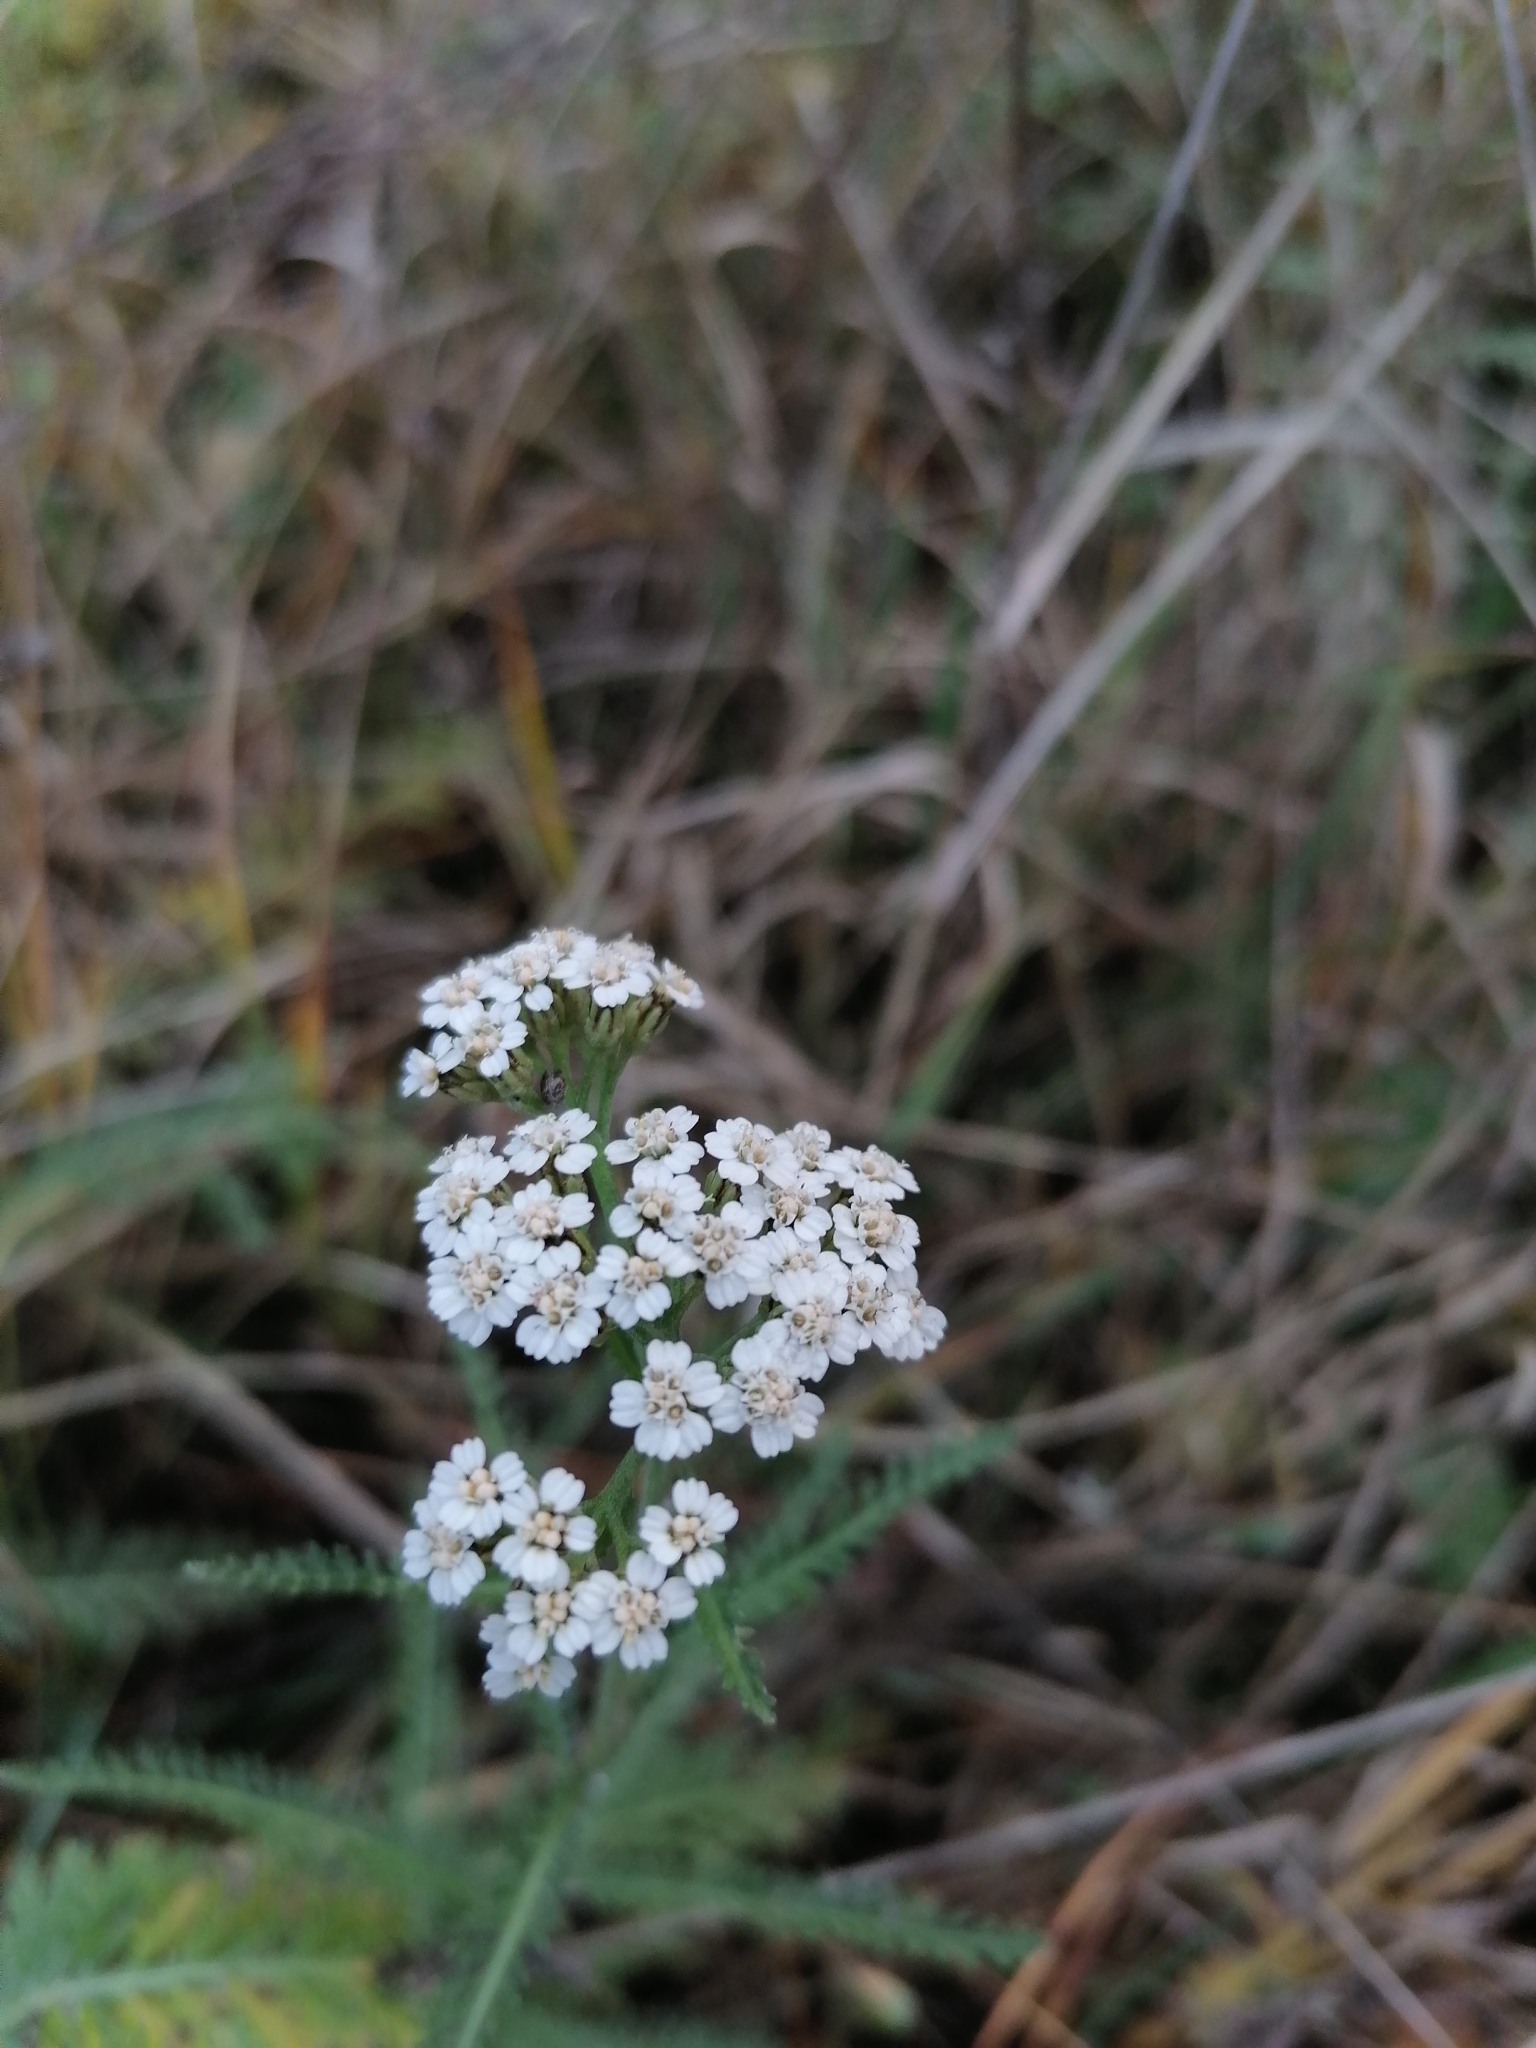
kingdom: Plantae
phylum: Tracheophyta
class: Magnoliopsida
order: Asterales
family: Asteraceae
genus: Achillea
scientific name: Achillea millefolium
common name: Yarrow
